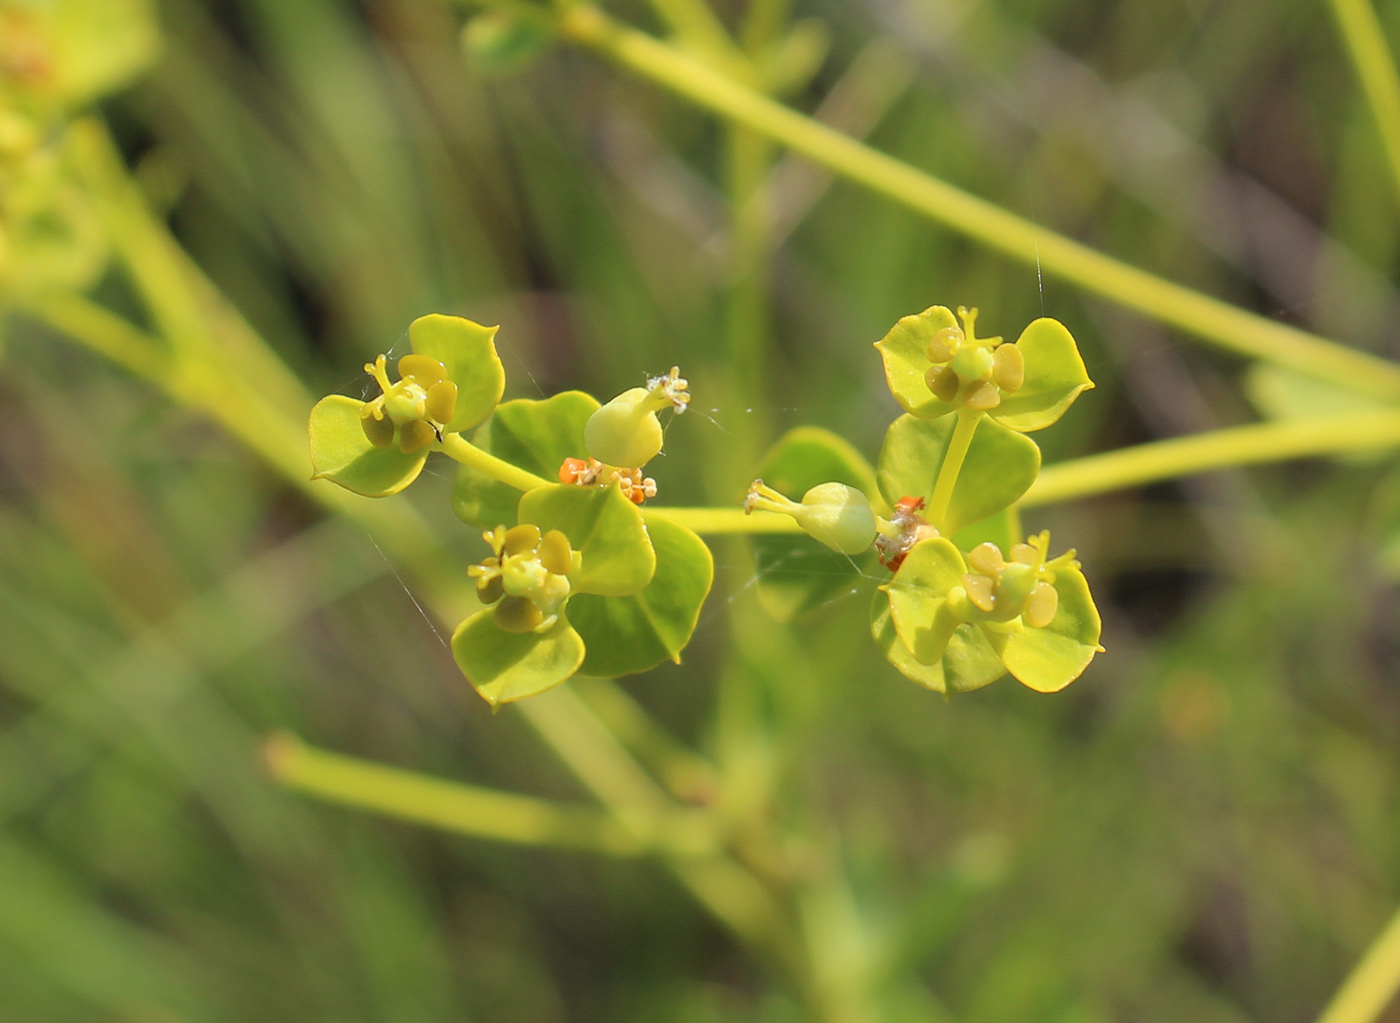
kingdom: Plantae
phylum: Tracheophyta
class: Magnoliopsida
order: Malpighiales
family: Euphorbiaceae
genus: Euphorbia
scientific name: Euphorbia seguieriana
